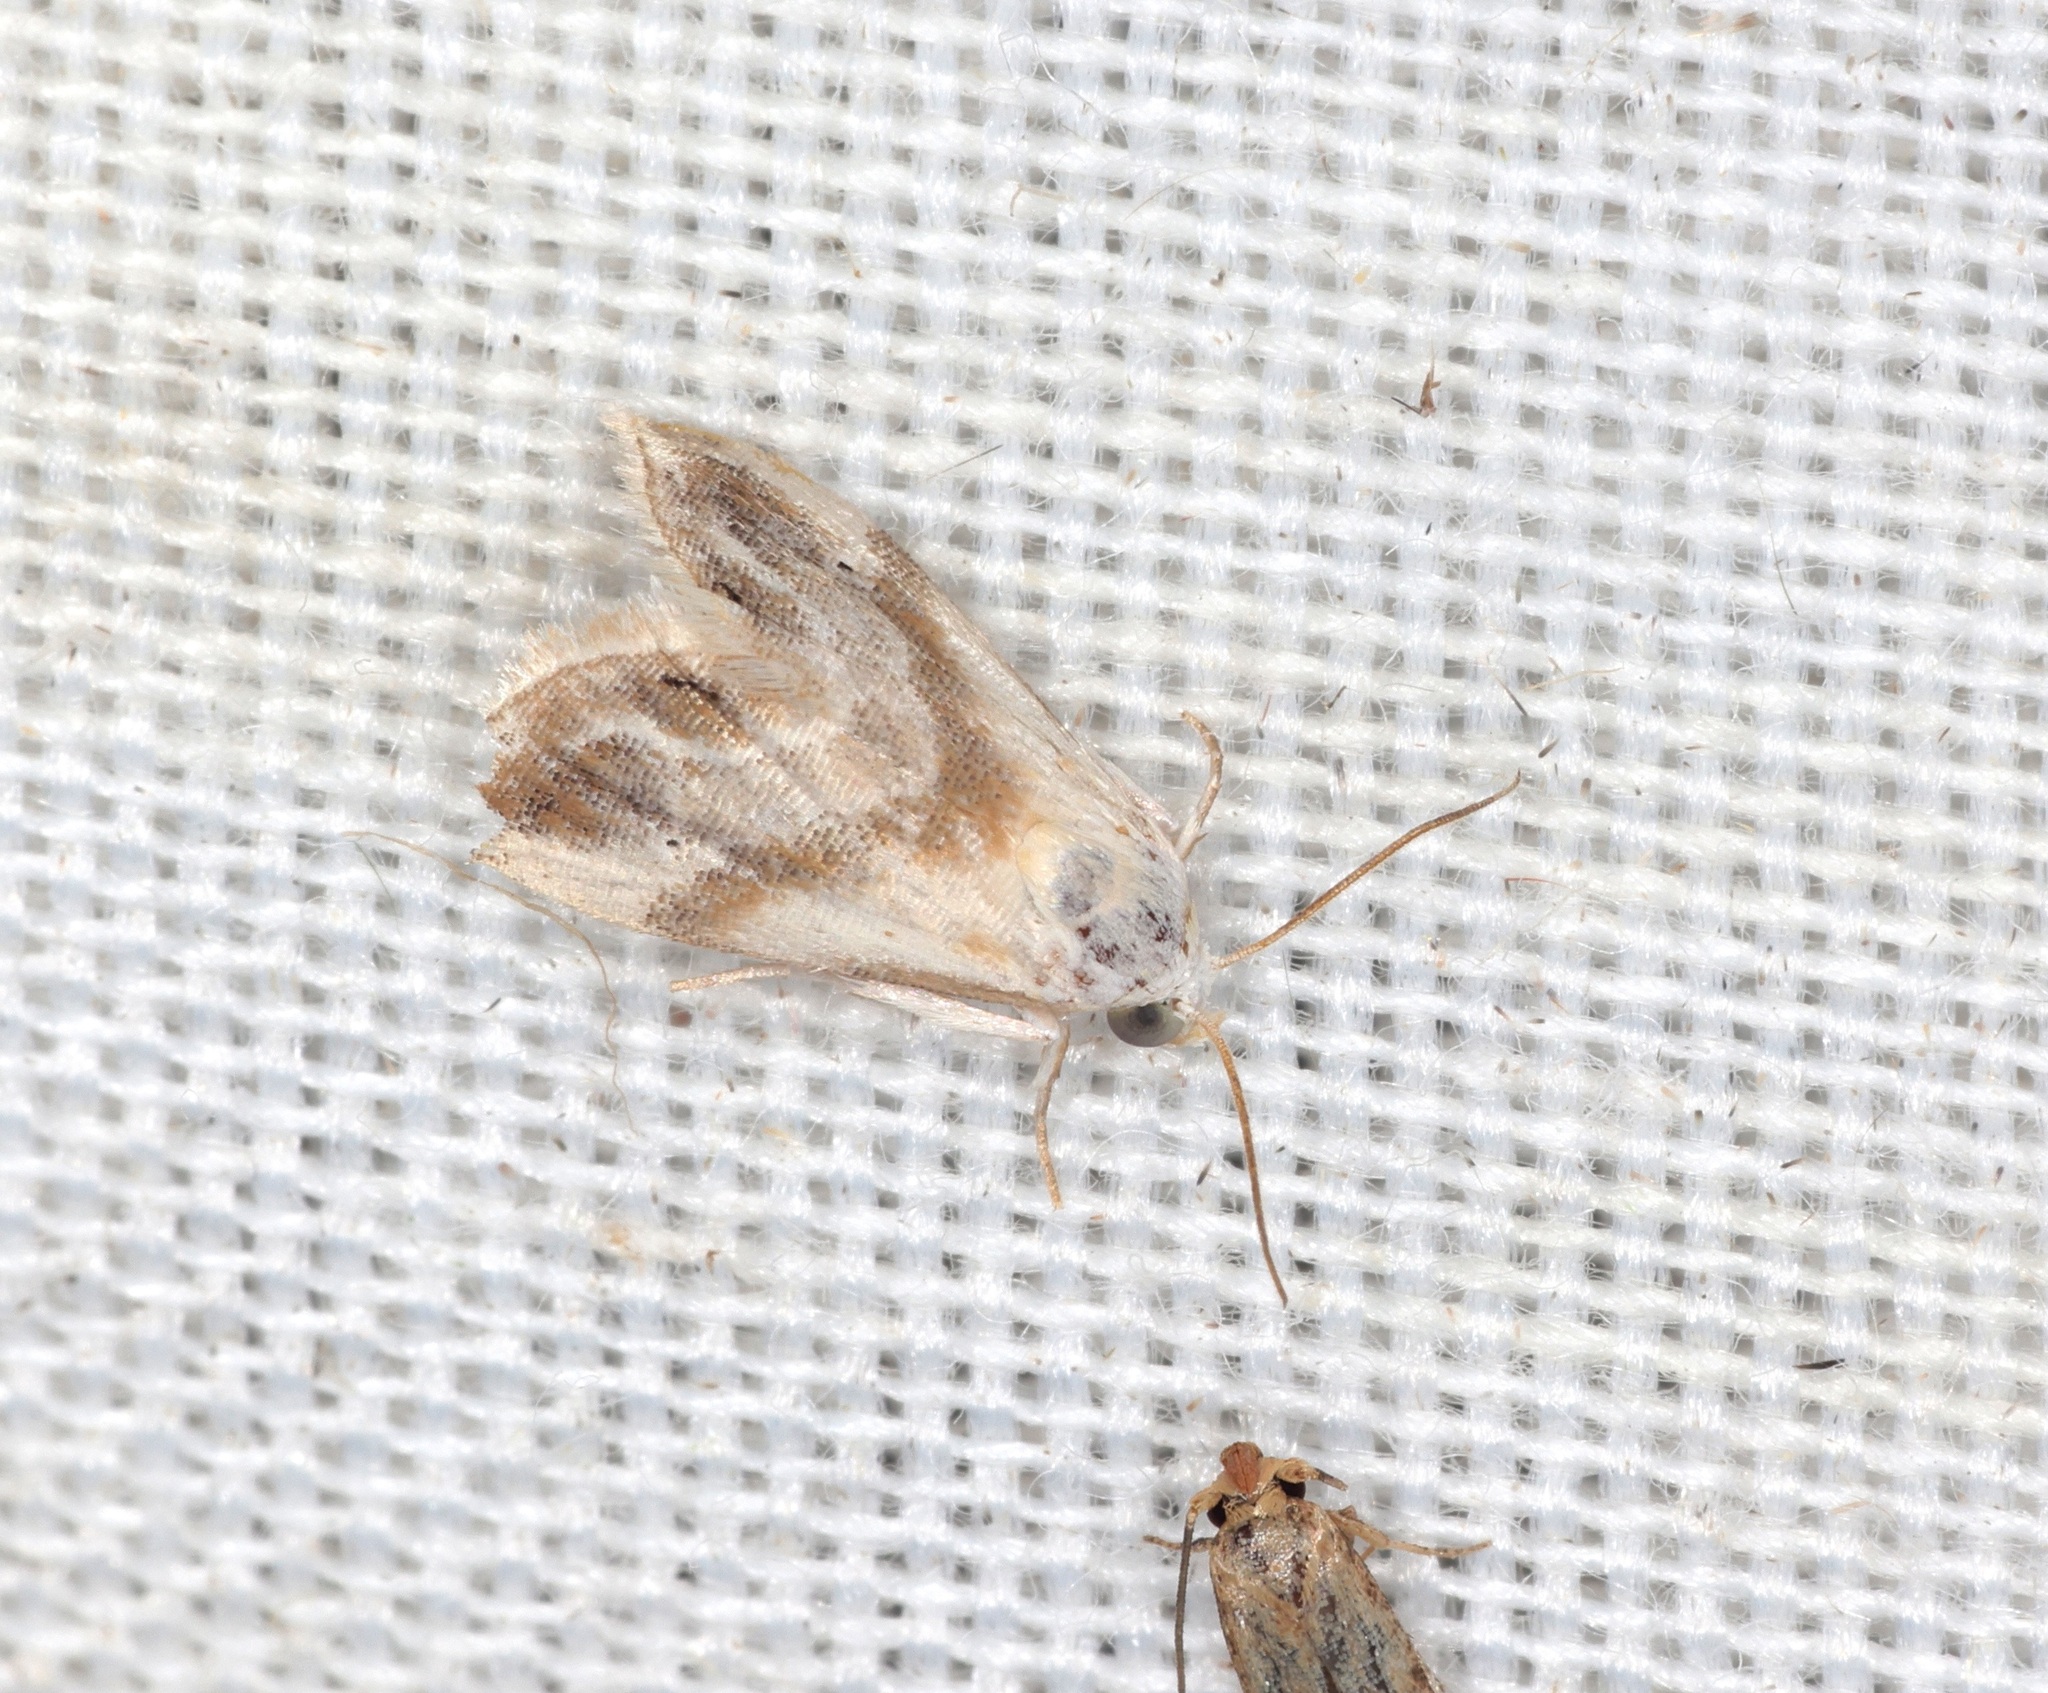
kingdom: Animalia
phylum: Arthropoda
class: Insecta
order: Lepidoptera
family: Noctuidae
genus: Eublemma
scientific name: Eublemma roseana
